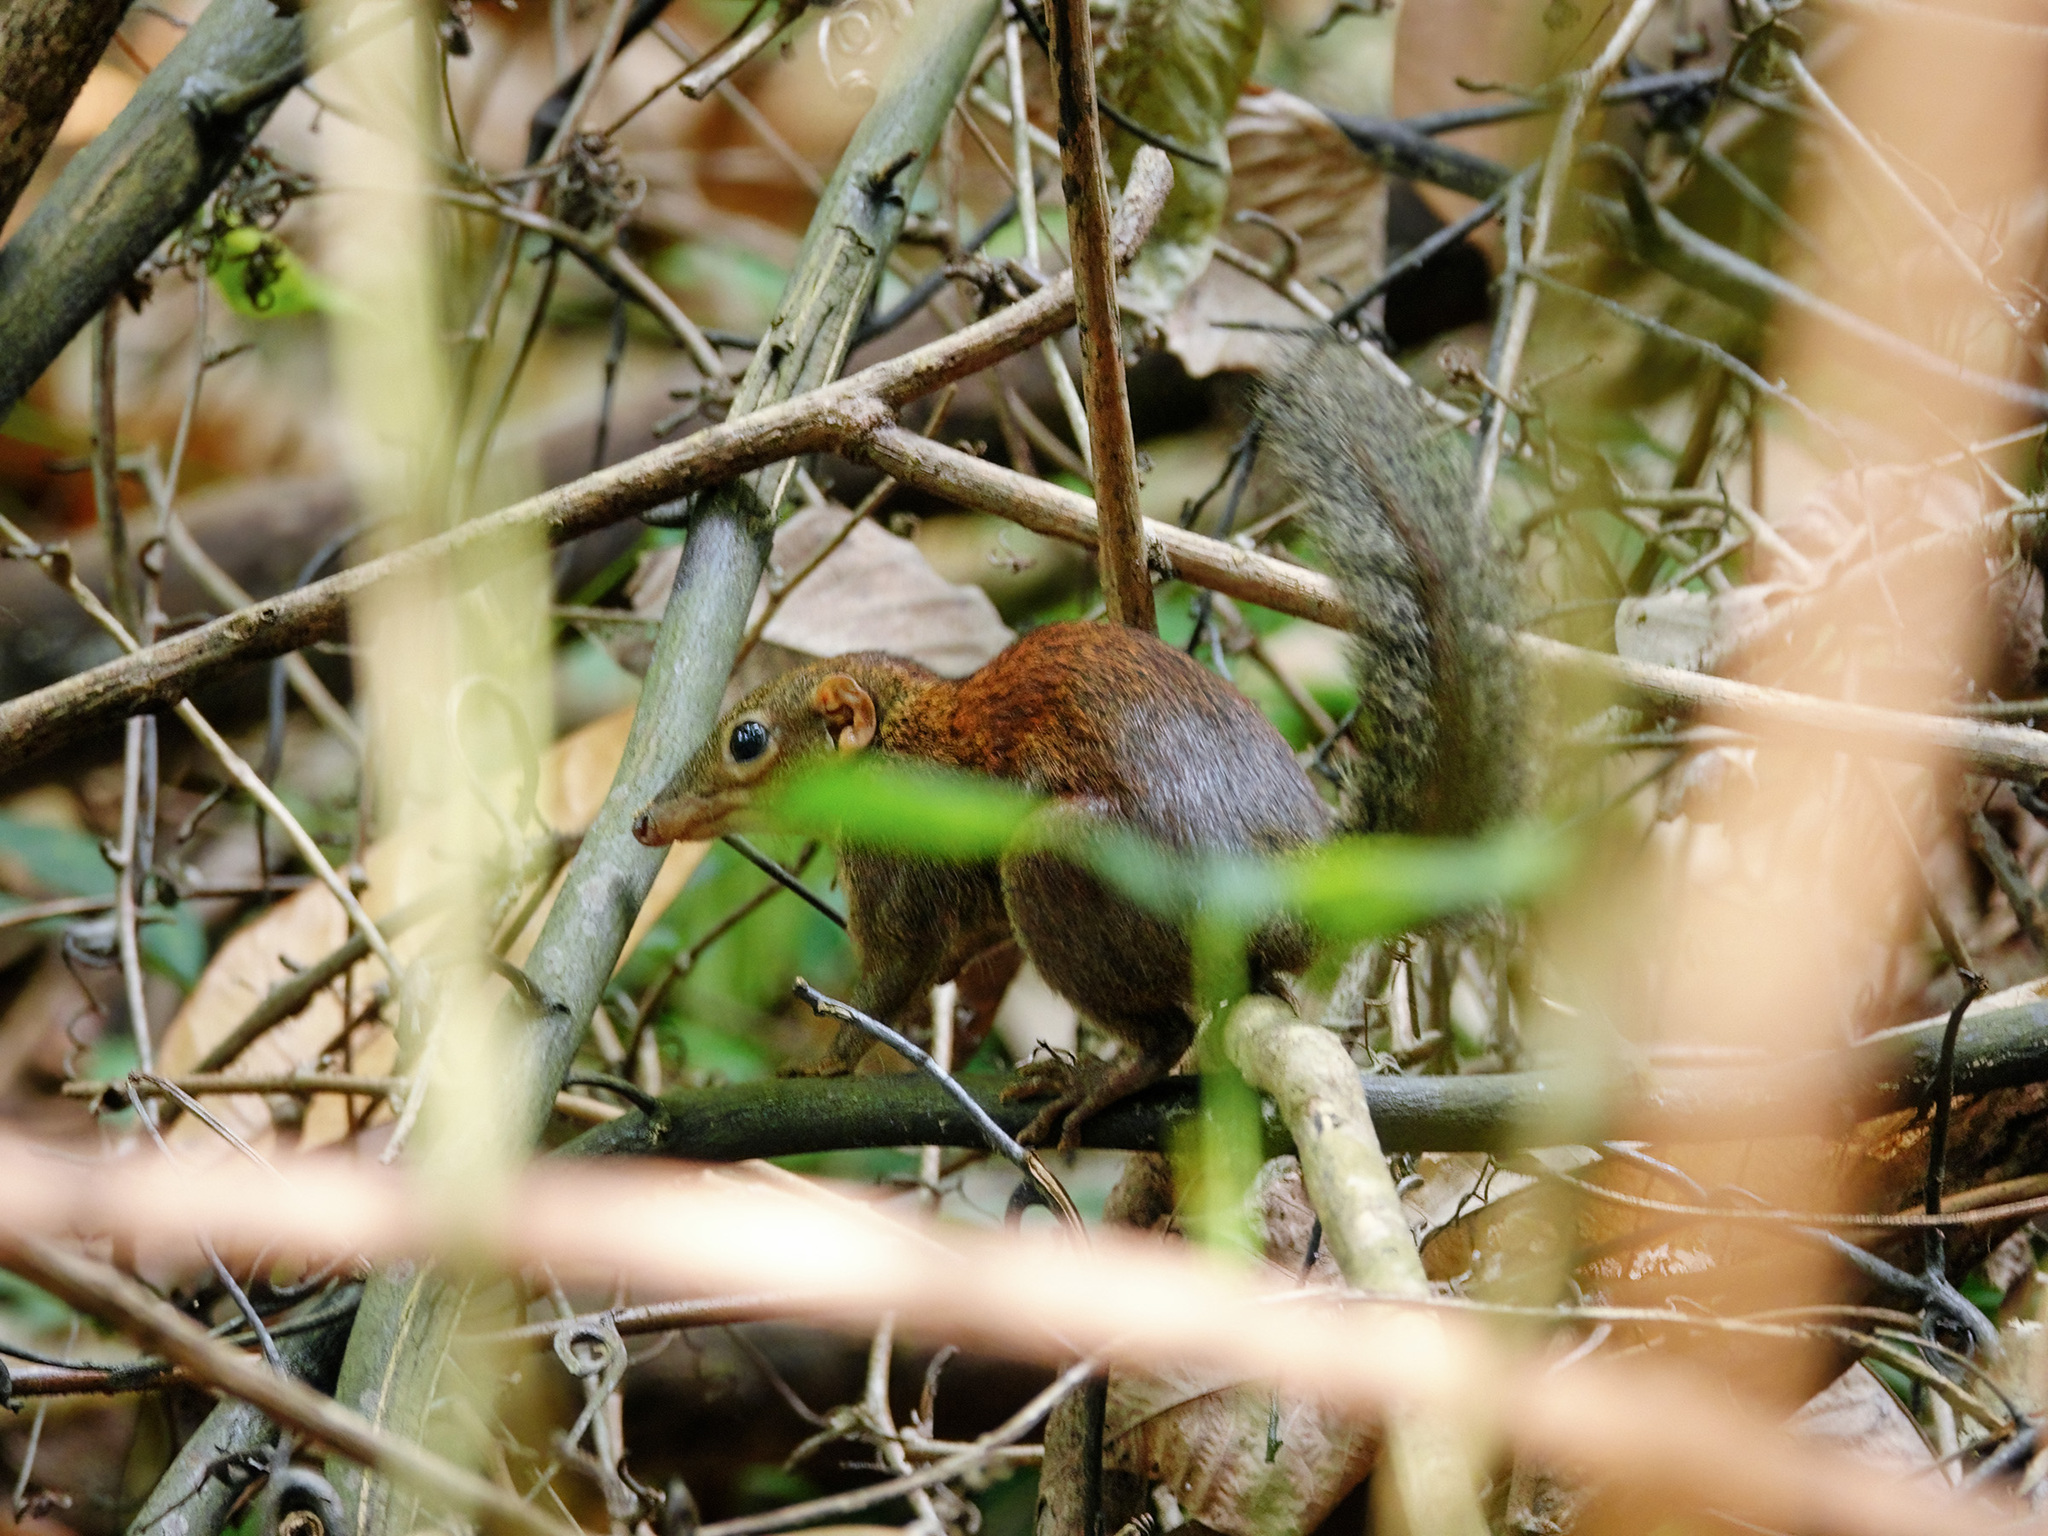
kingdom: Animalia
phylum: Chordata
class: Mammalia
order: Scandentia
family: Tupaiidae
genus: Tupaia
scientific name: Tupaia glis
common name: Common treeshrew
